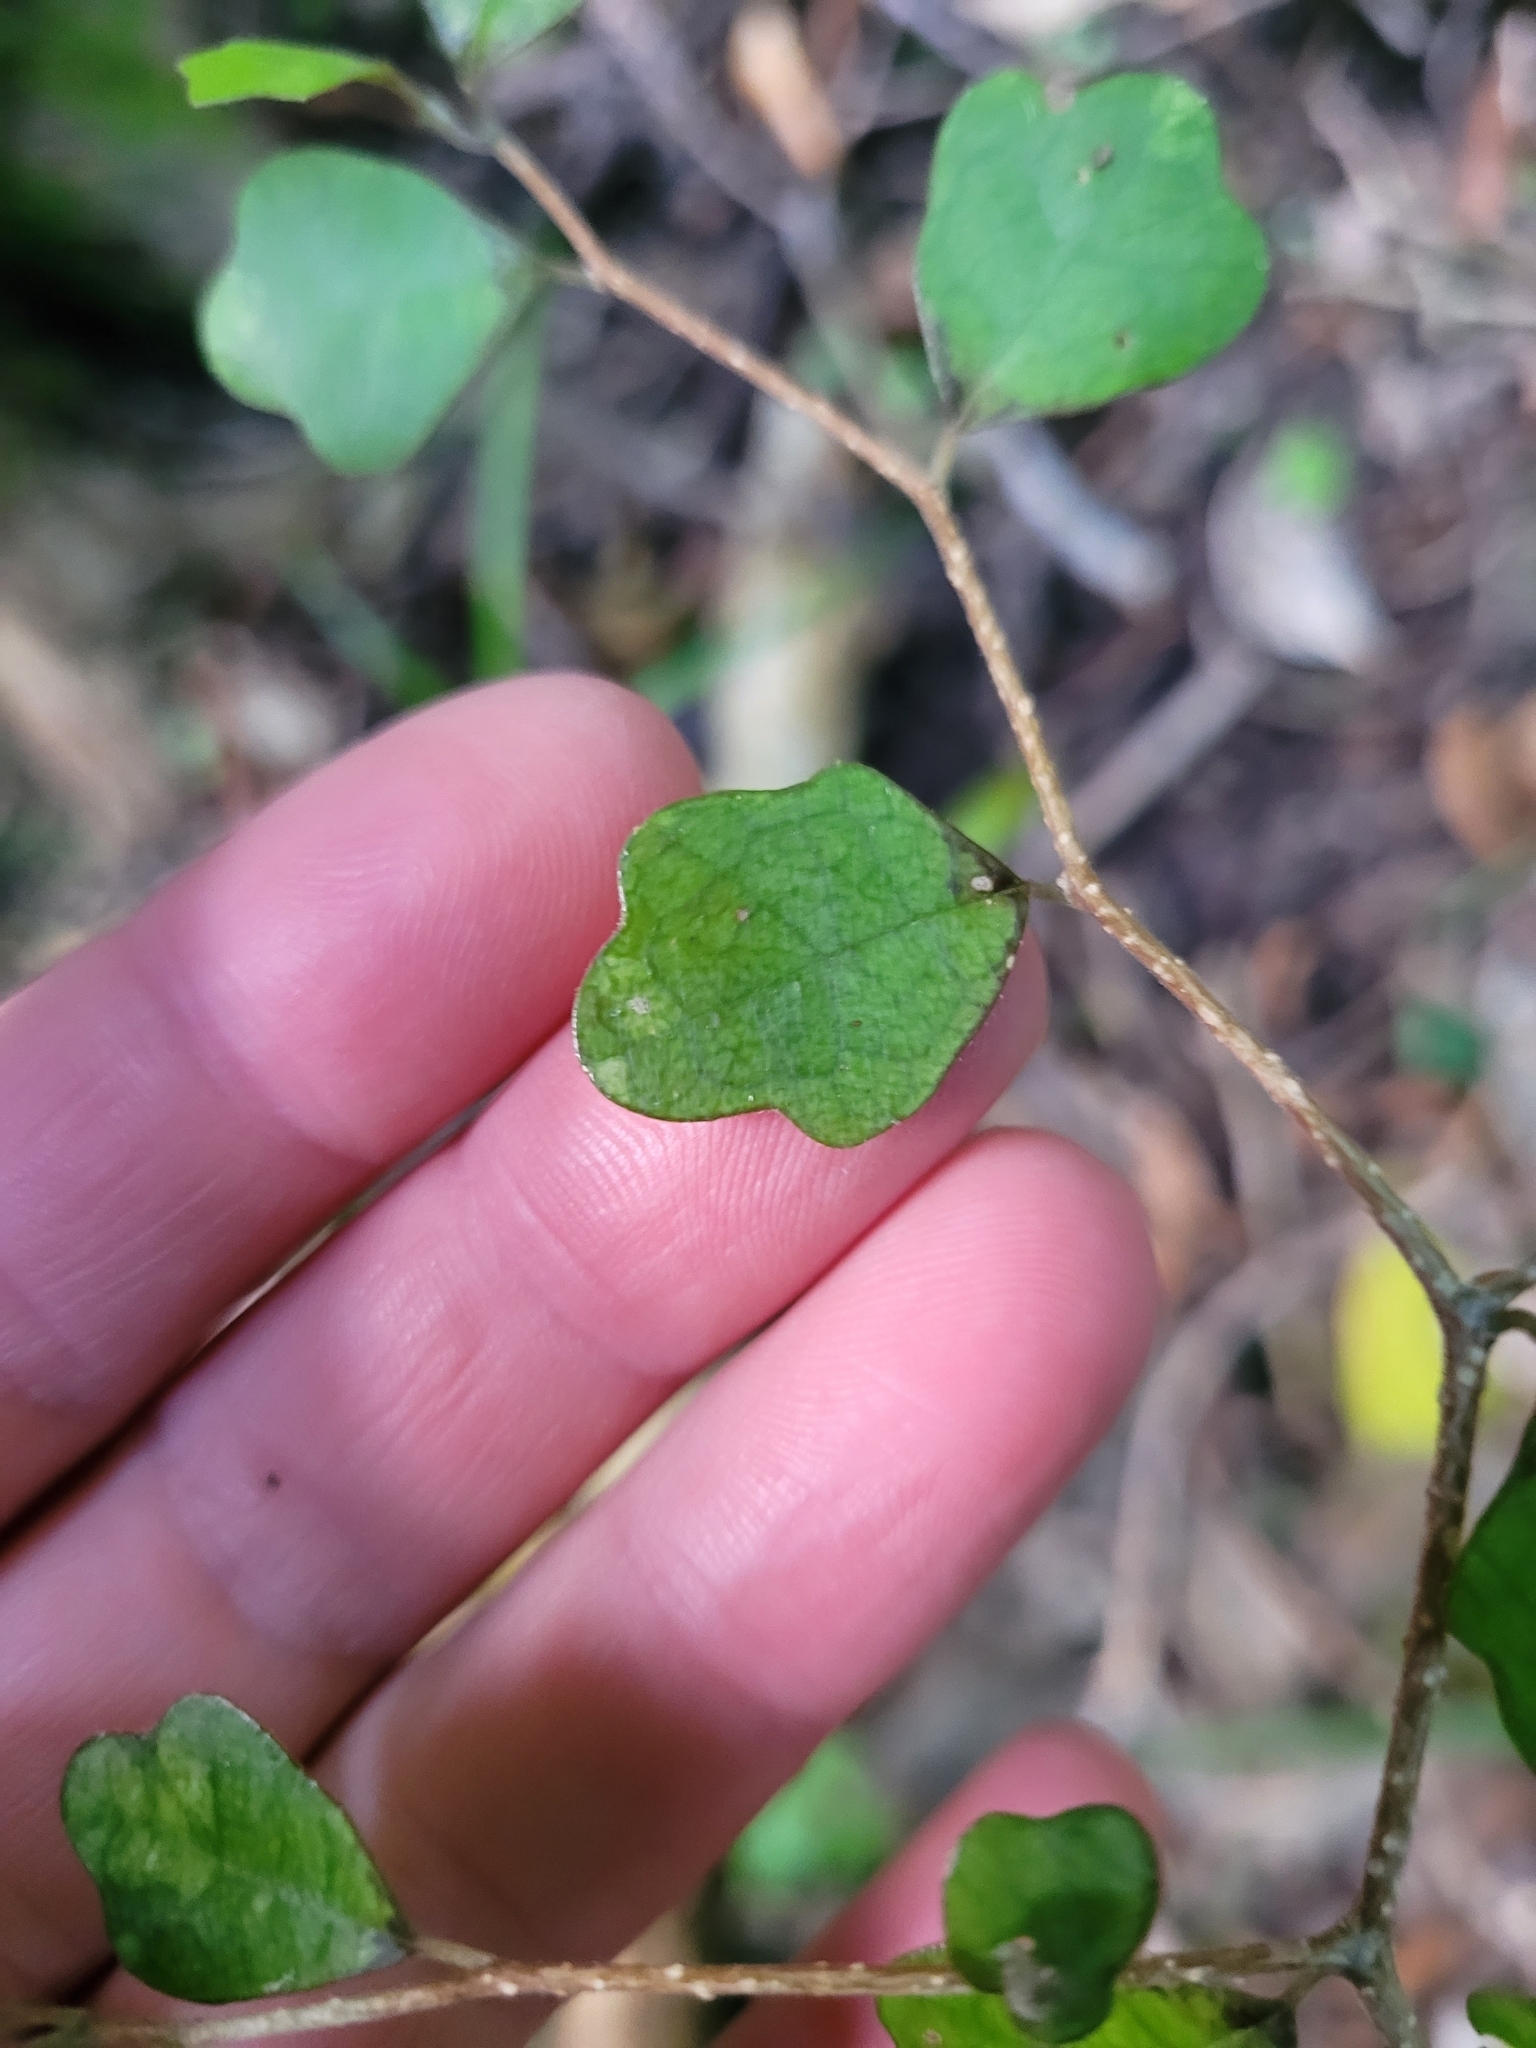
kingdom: Plantae
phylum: Tracheophyta
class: Magnoliopsida
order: Apiales
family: Pennantiaceae
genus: Pennantia
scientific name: Pennantia corymbosa
